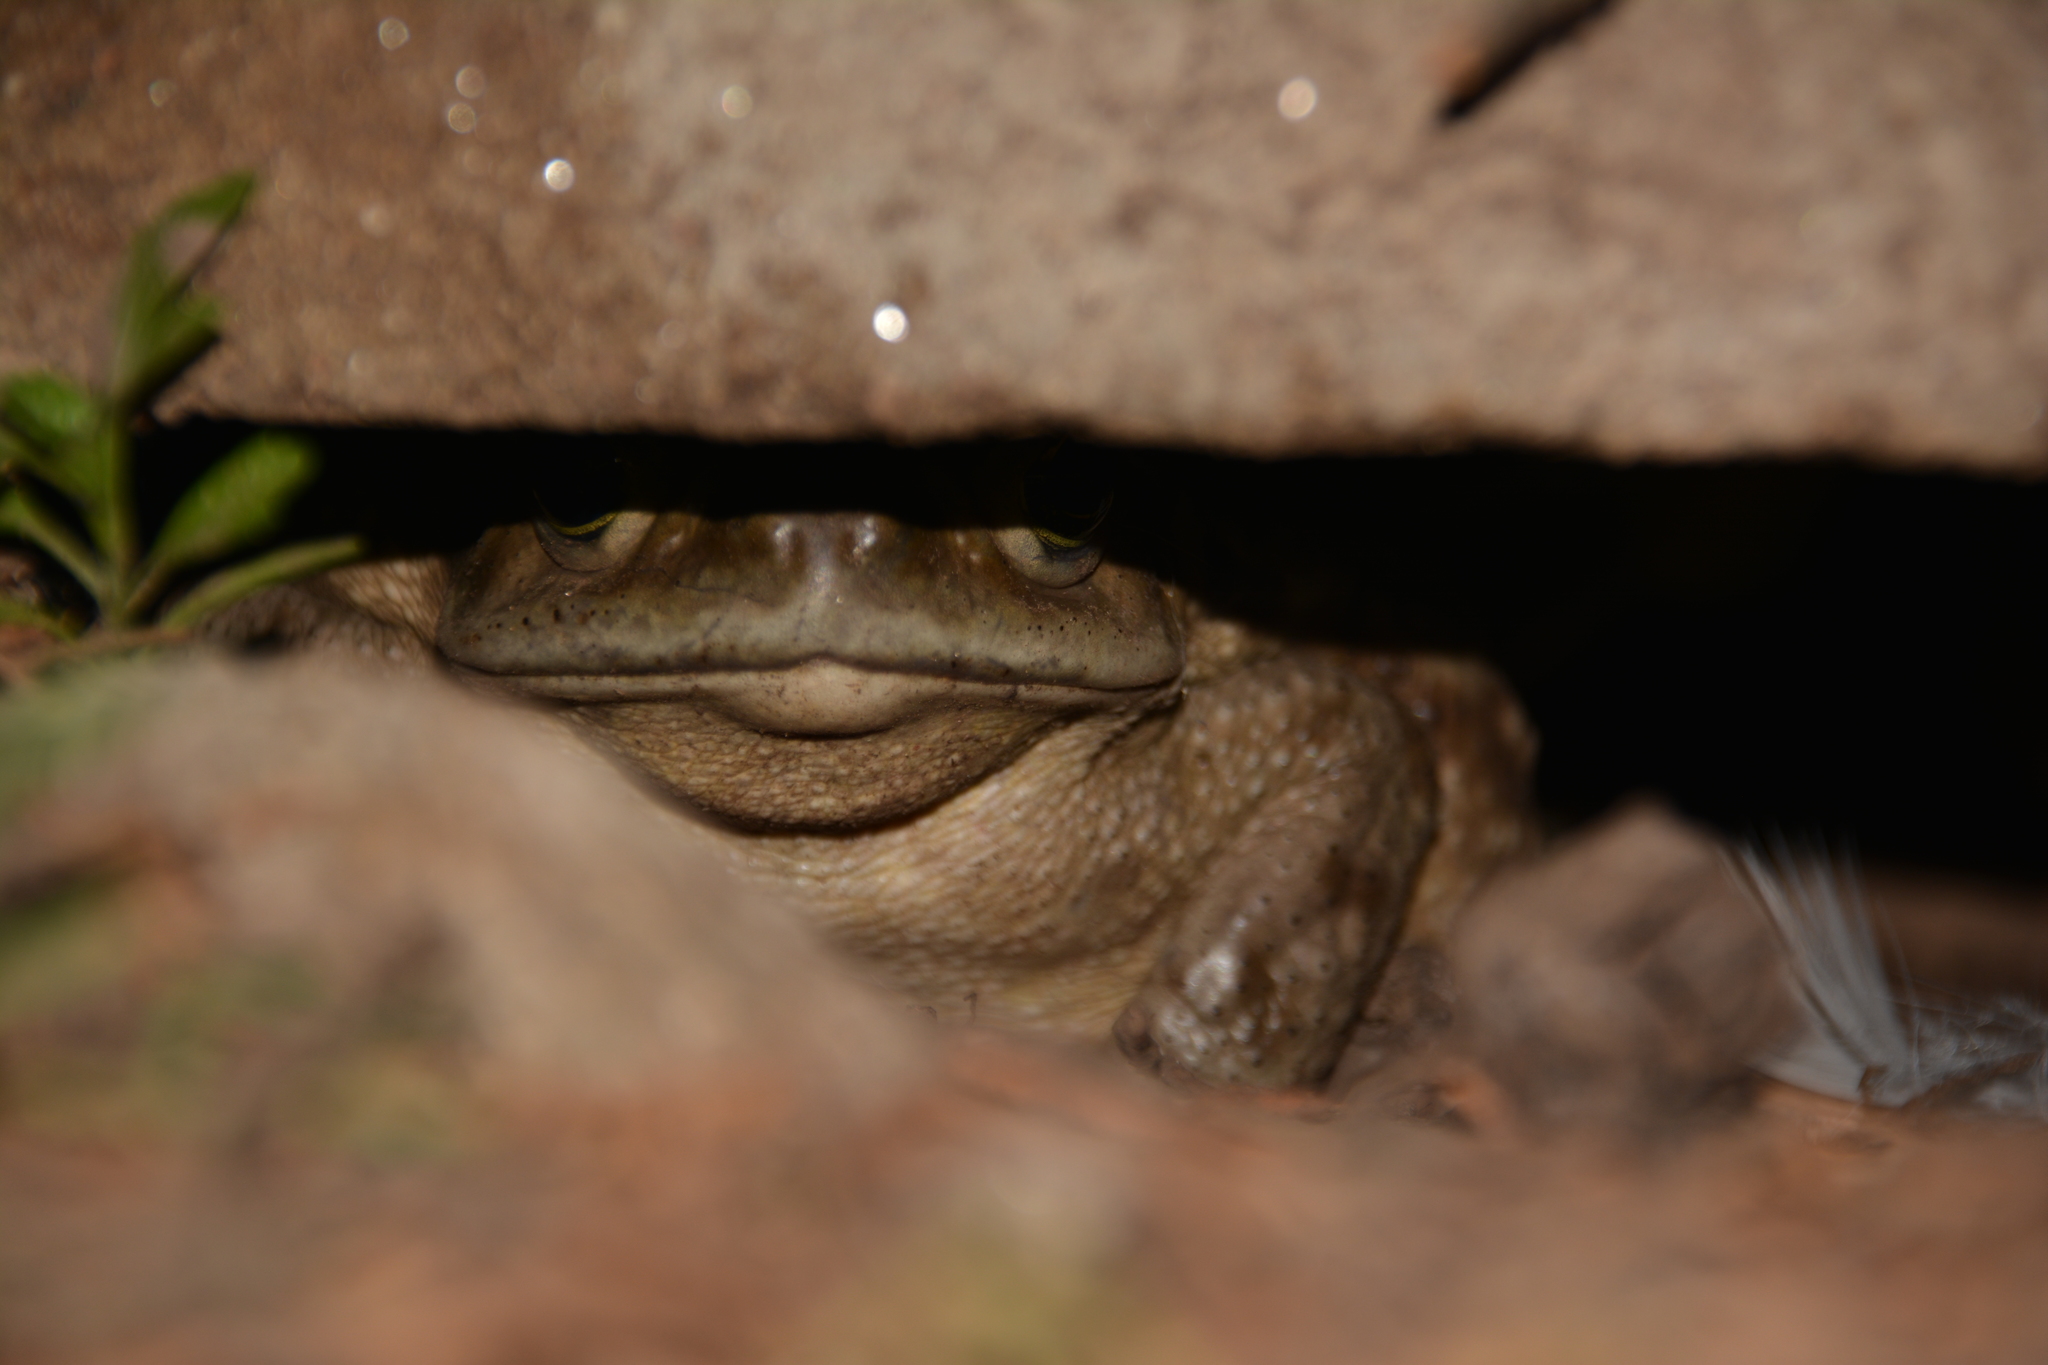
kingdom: Animalia
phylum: Chordata
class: Amphibia
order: Anura
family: Bufonidae
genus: Rhinella
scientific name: Rhinella arenarum
